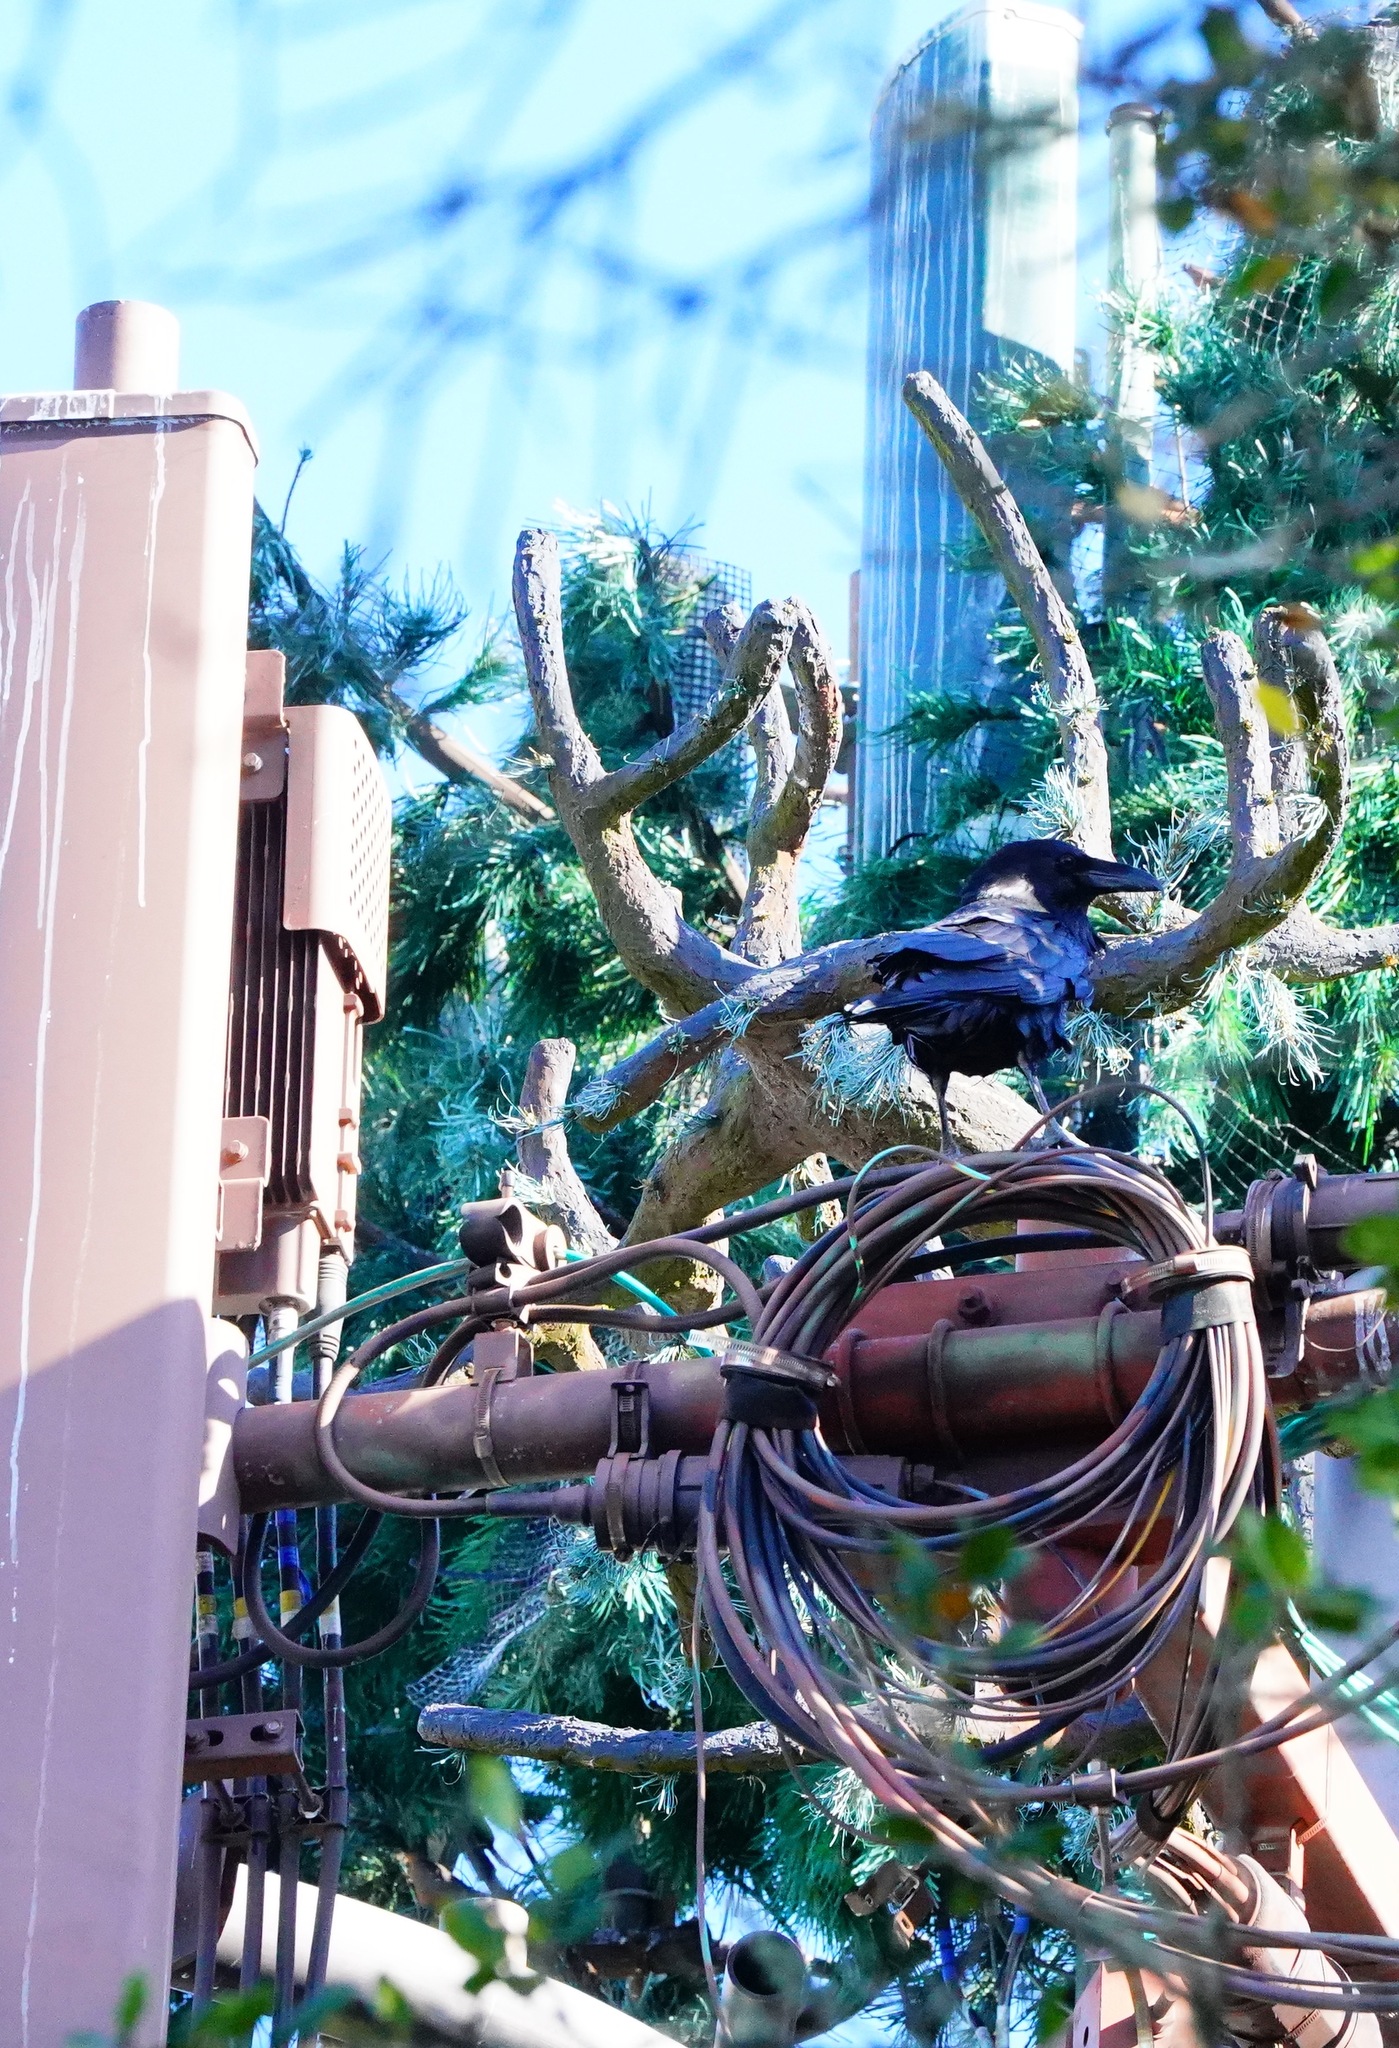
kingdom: Animalia
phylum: Chordata
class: Aves
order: Passeriformes
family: Corvidae
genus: Corvus
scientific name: Corvus corax
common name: Common raven
